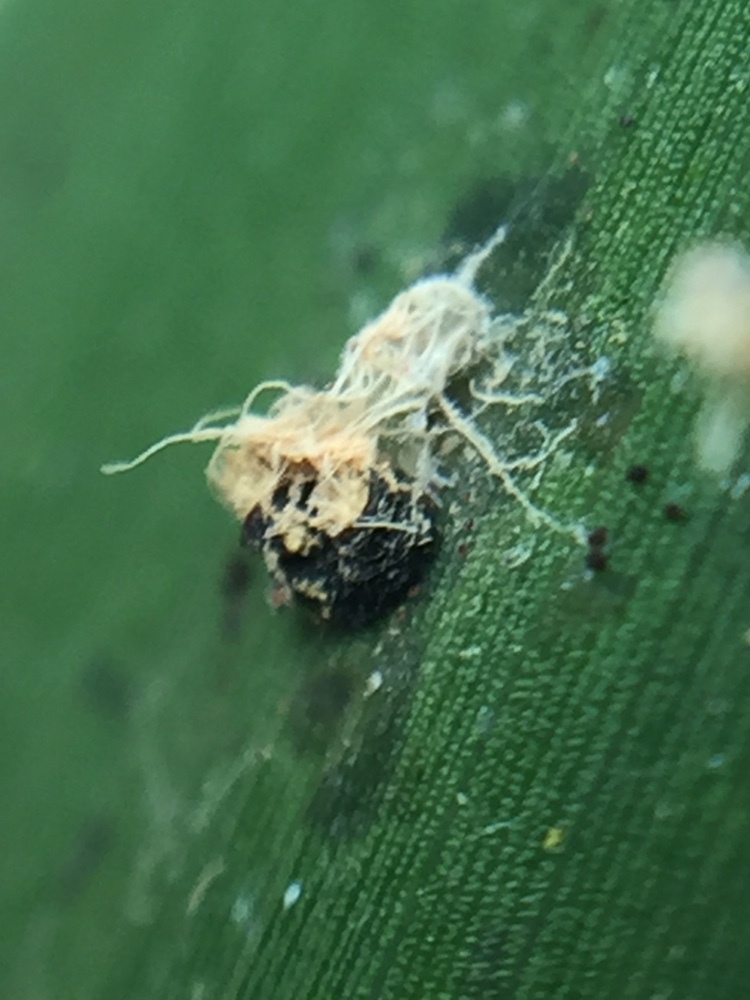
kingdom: Fungi
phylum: Basidiomycota
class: Exobasidiomycetes
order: Exobasidiales
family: Graphiolaceae
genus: Graphiola
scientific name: Graphiola phoenicis
